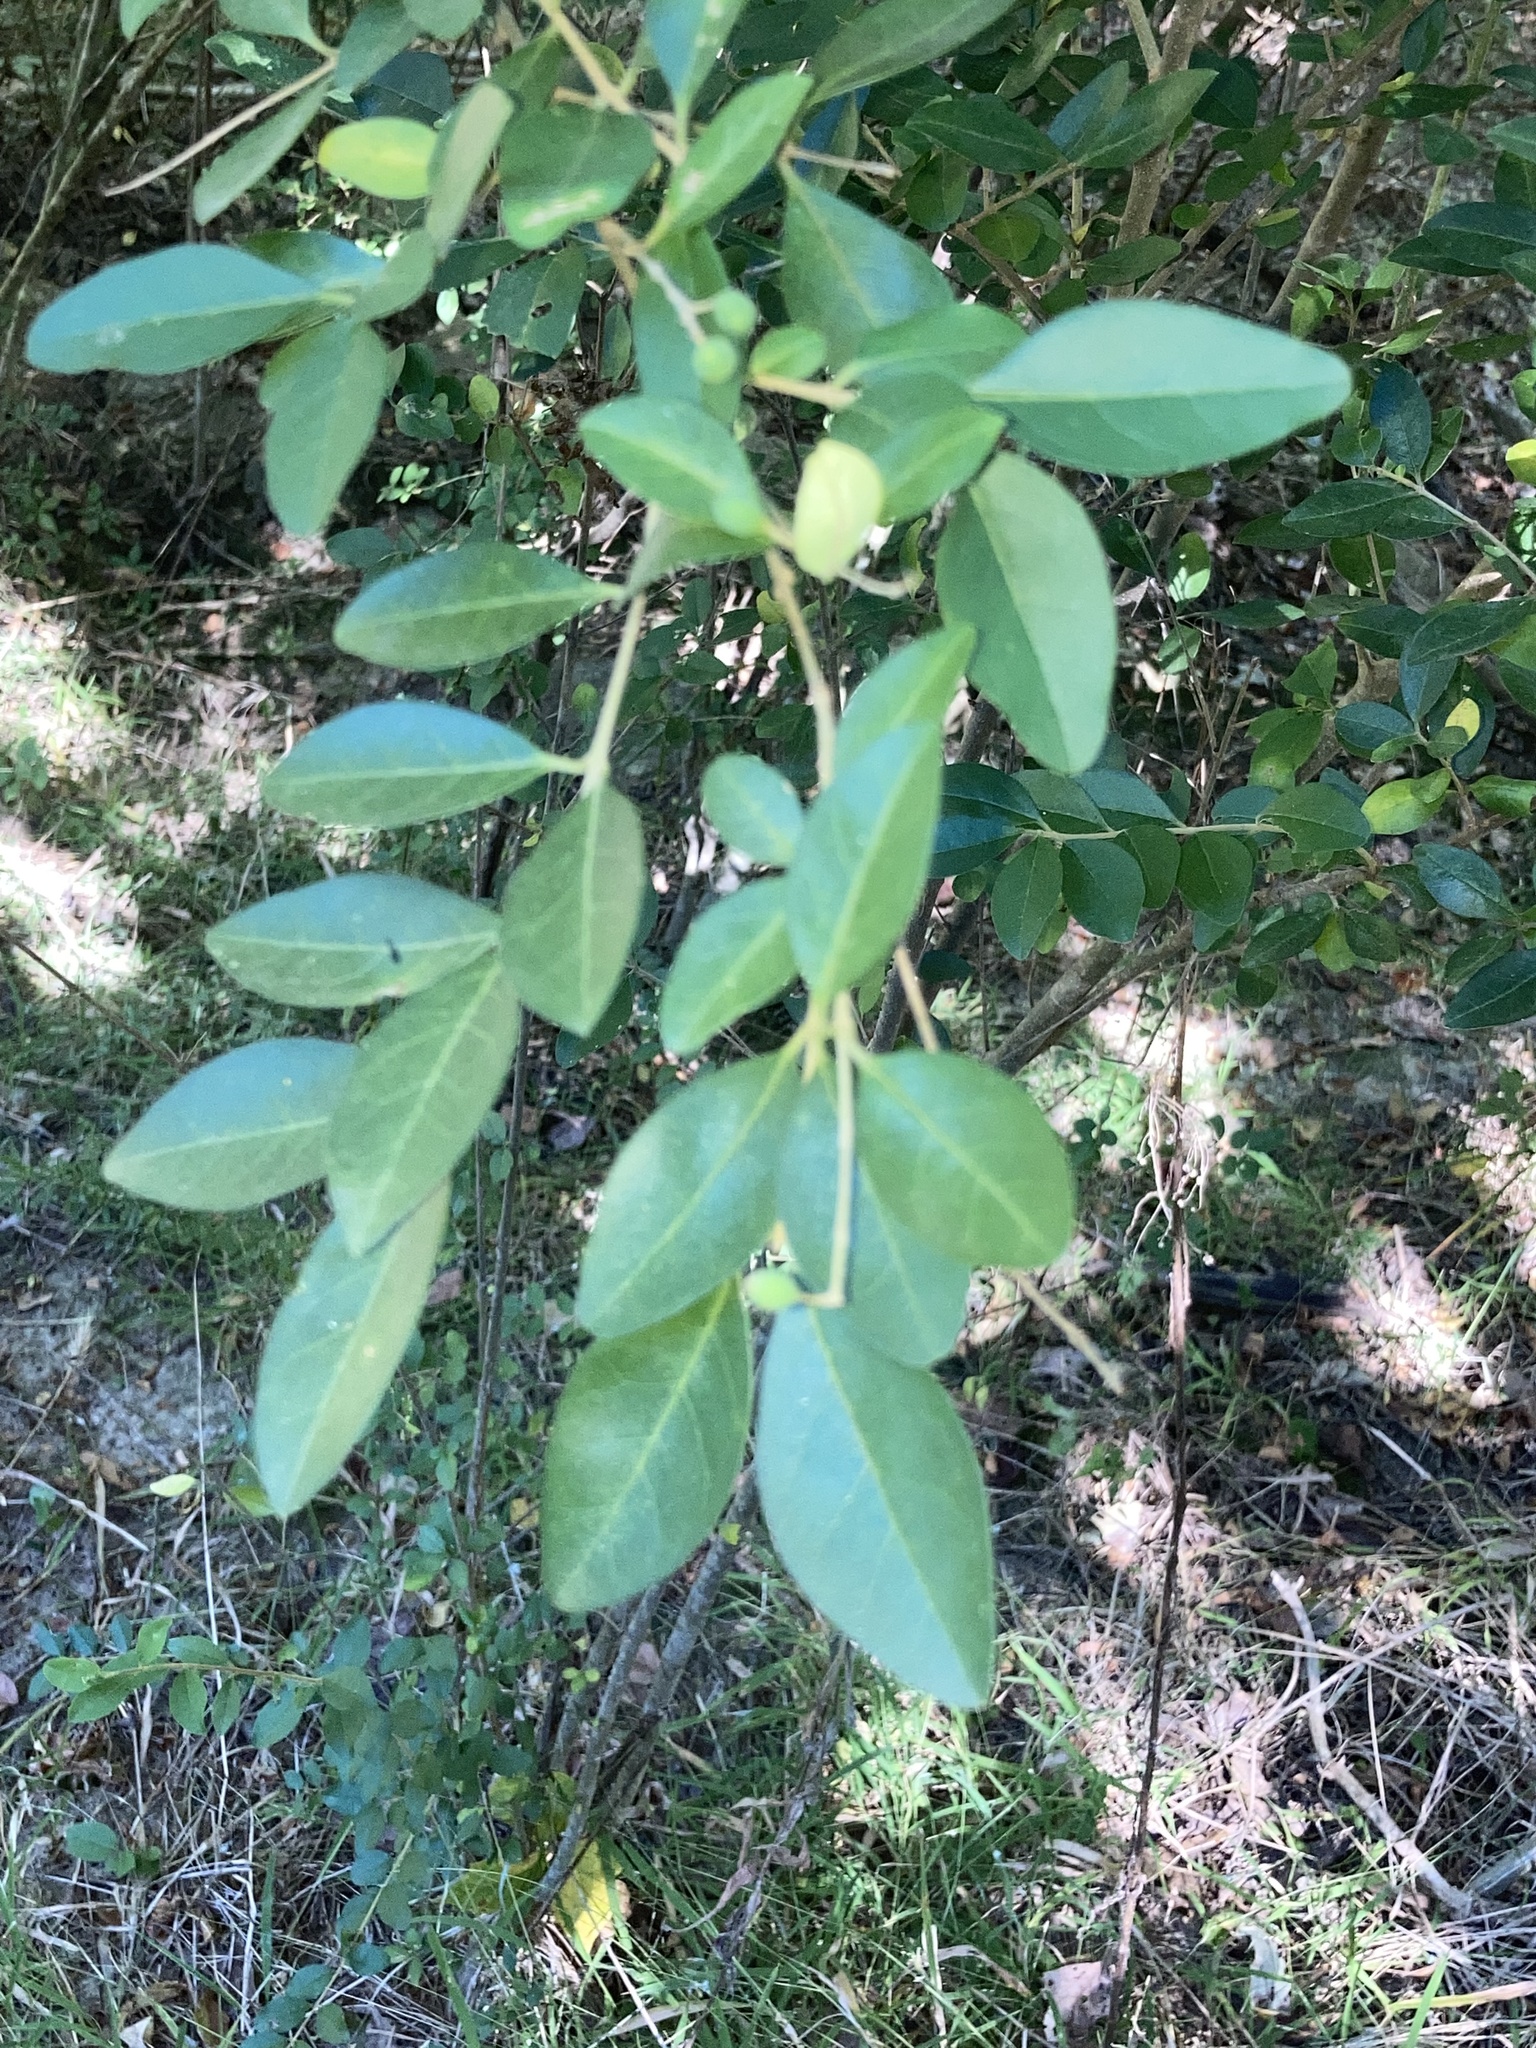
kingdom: Plantae
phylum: Tracheophyta
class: Magnoliopsida
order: Lamiales
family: Oleaceae
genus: Ligustrum
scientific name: Ligustrum sinense
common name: Chinese privet
